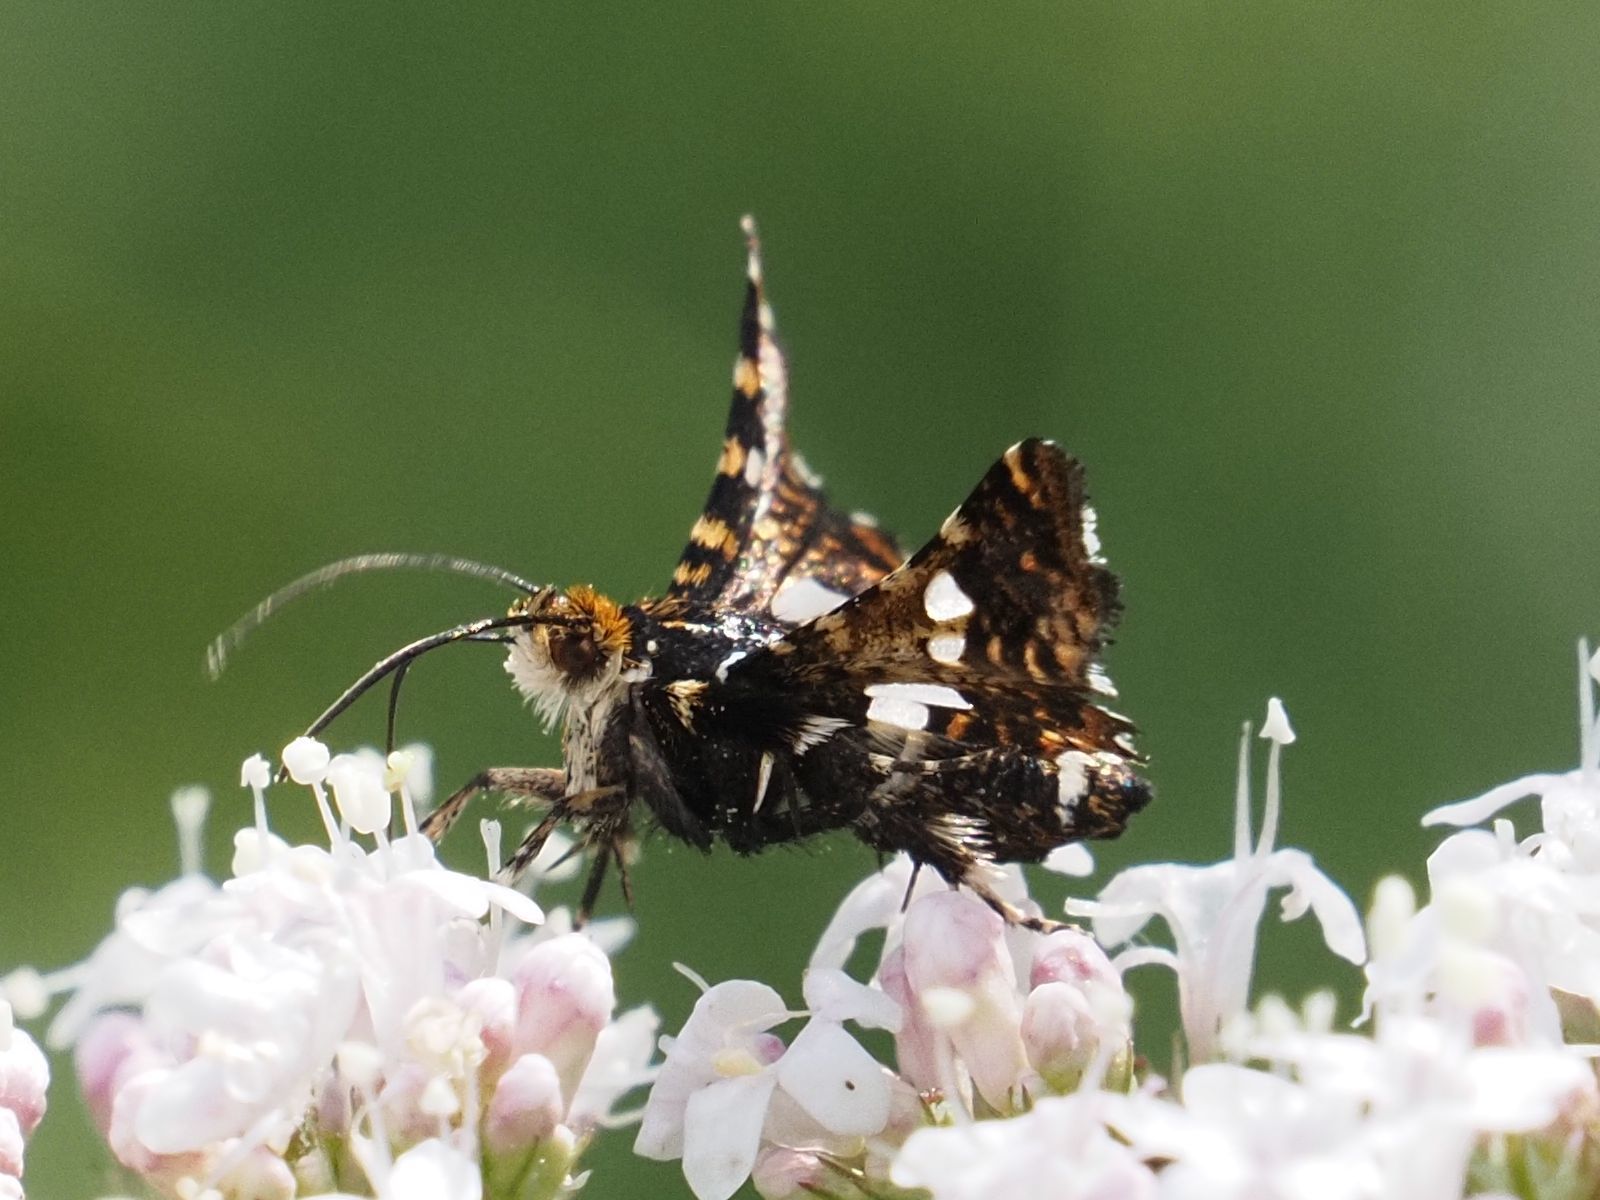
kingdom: Animalia
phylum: Arthropoda
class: Insecta
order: Lepidoptera
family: Thyrididae
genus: Thyris
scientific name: Thyris fenestrella
